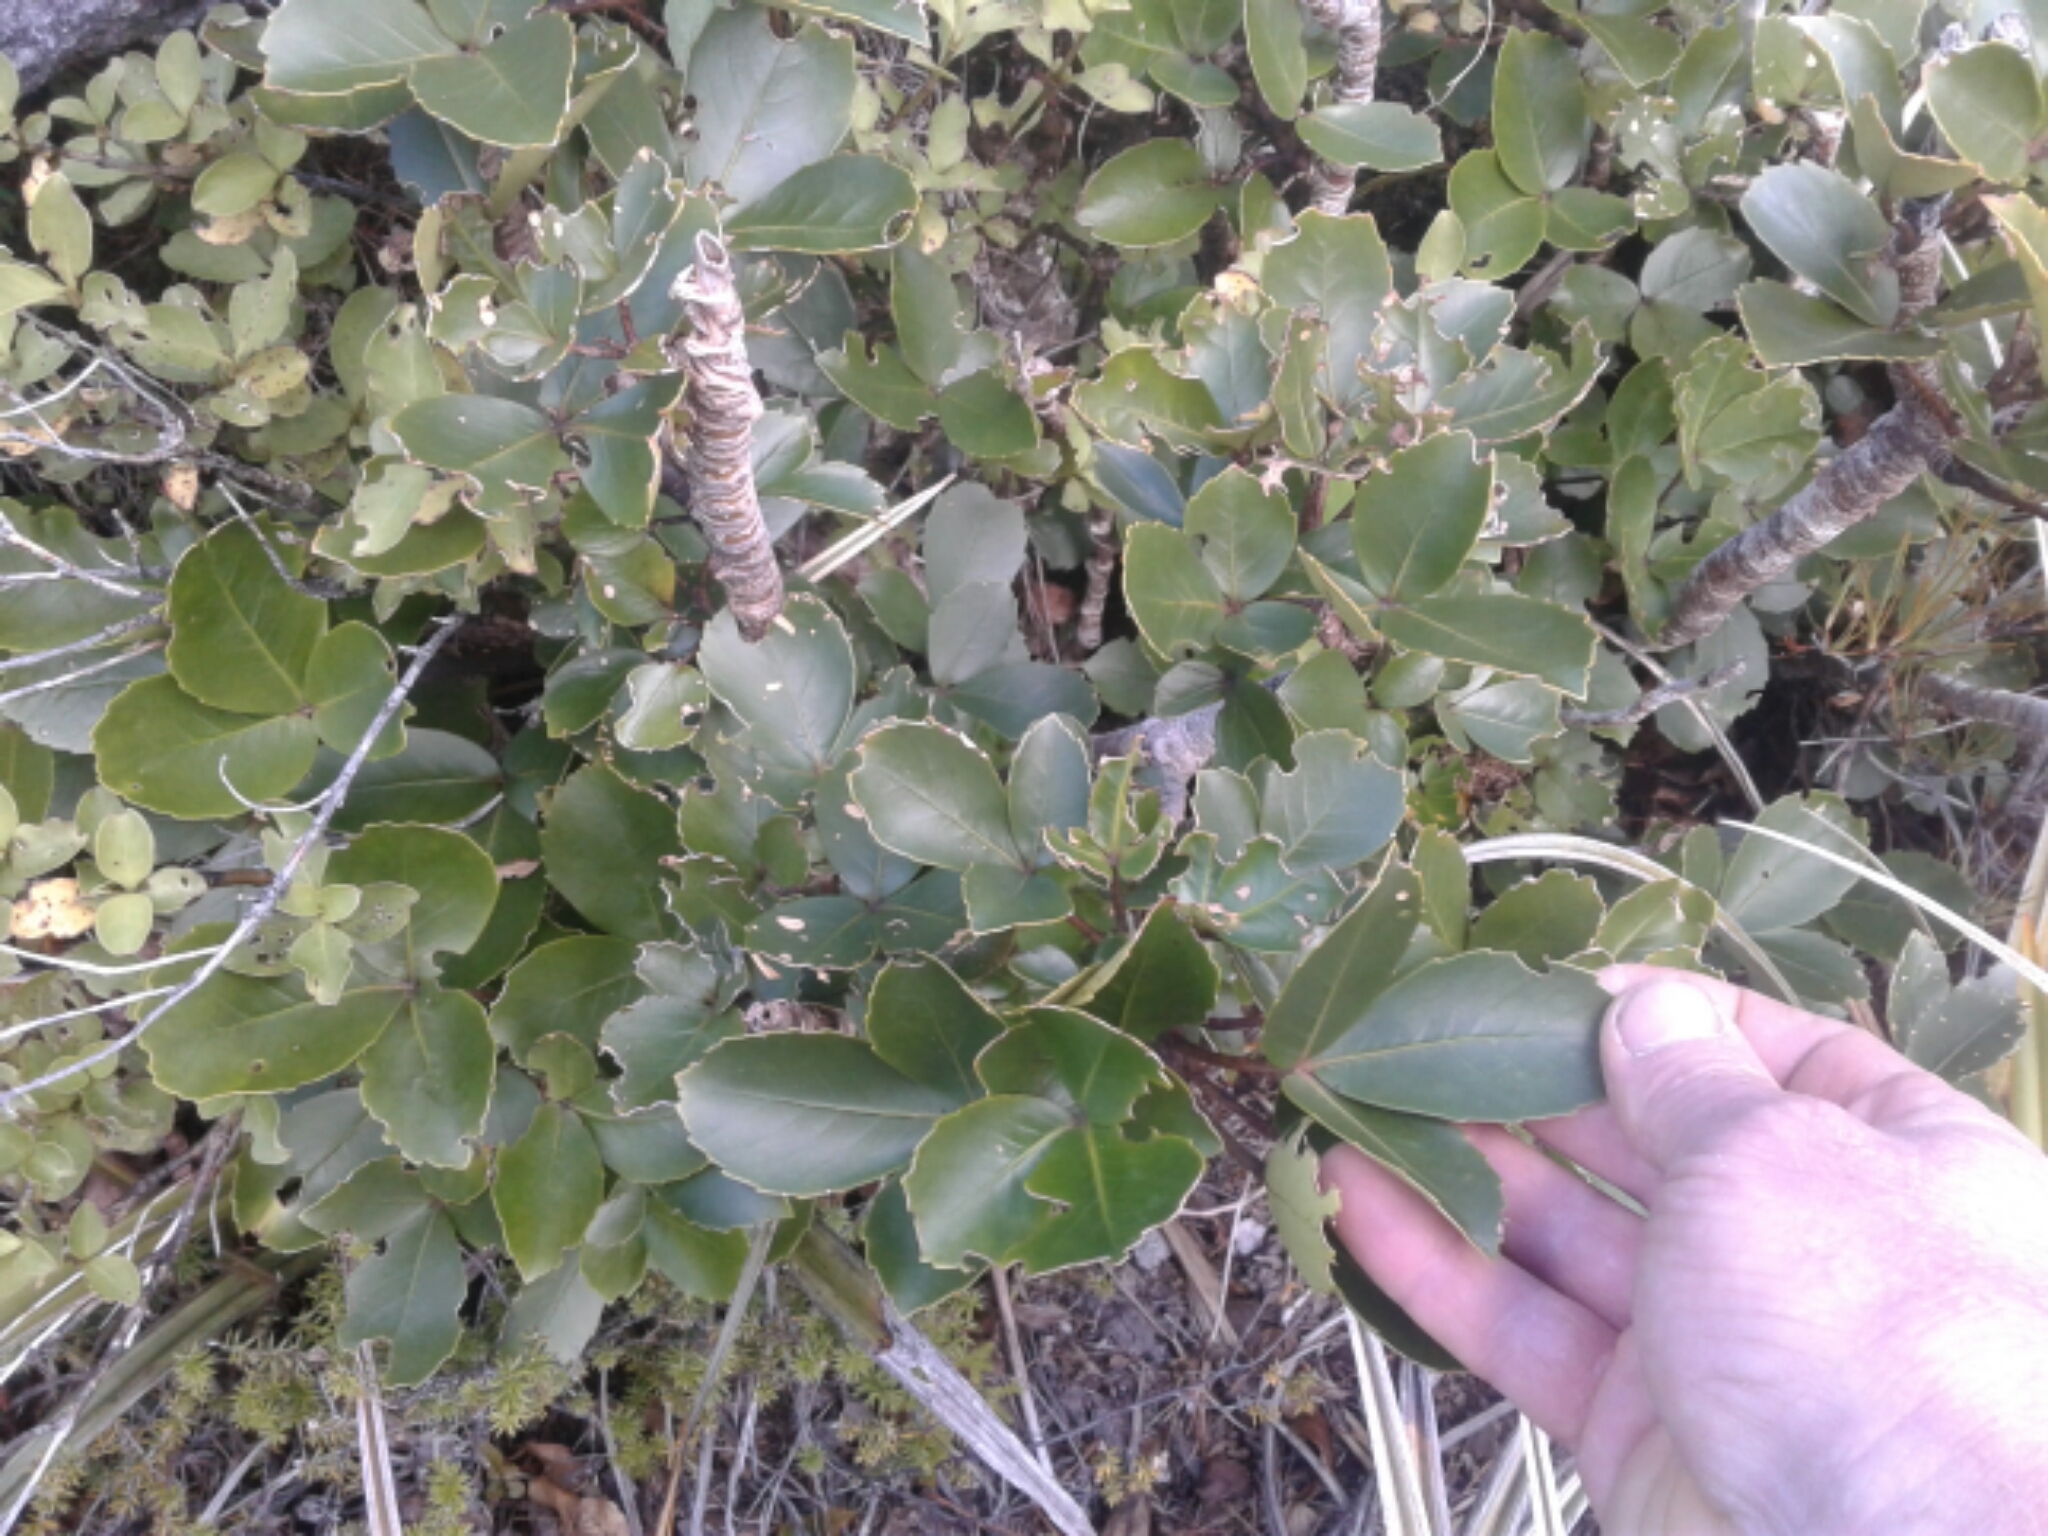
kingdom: Plantae
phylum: Tracheophyta
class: Magnoliopsida
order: Apiales
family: Araliaceae
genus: Neopanax
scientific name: Neopanax colensoi
